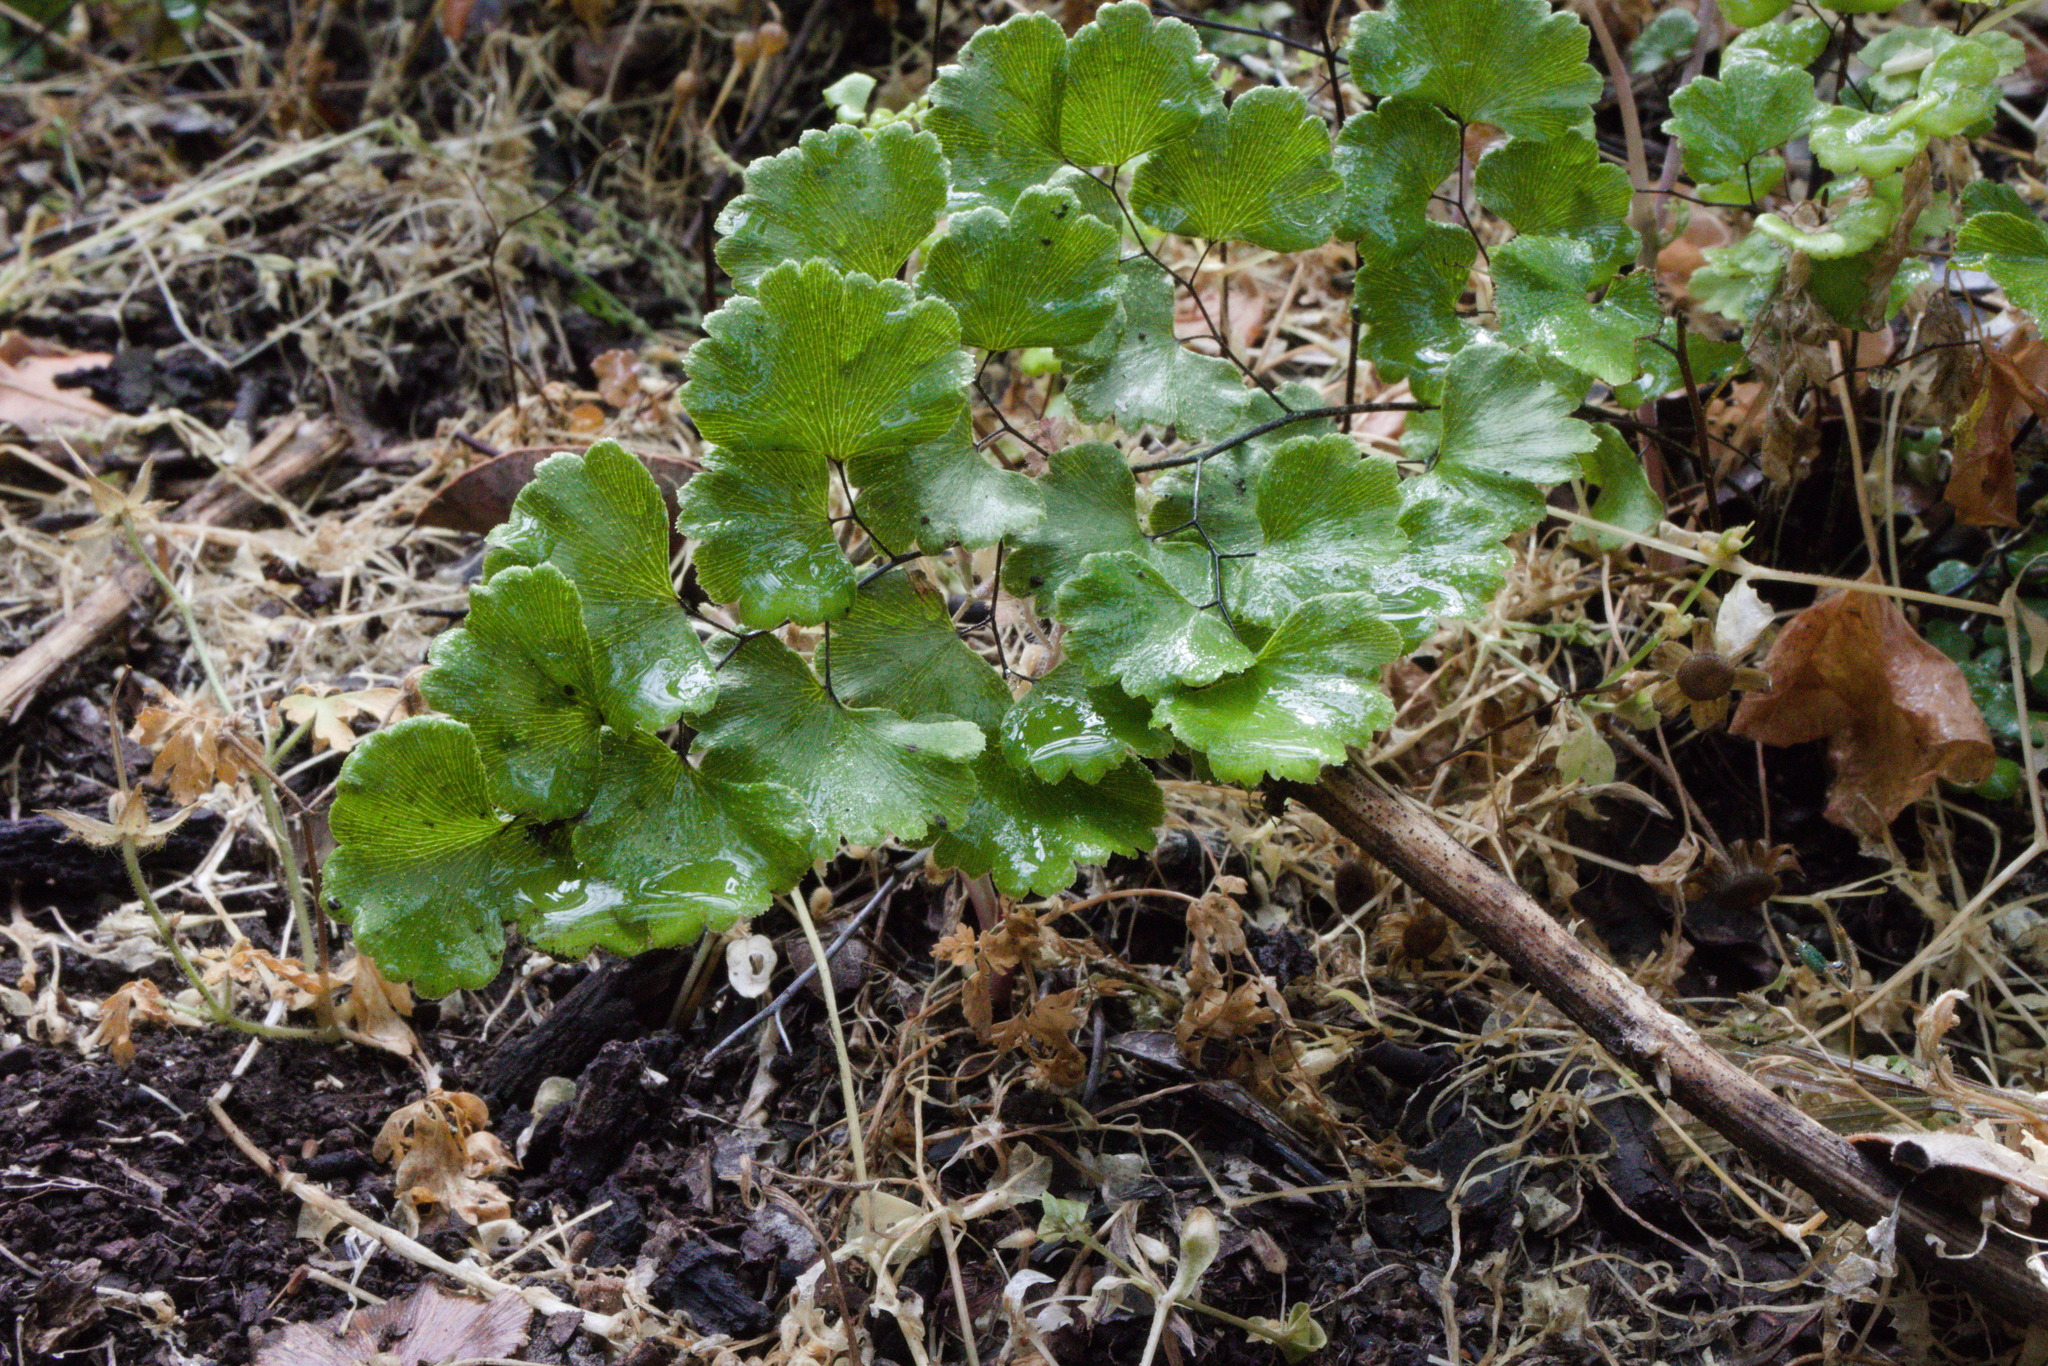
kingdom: Plantae
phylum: Tracheophyta
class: Polypodiopsida
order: Polypodiales
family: Pteridaceae
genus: Adiantum
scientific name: Adiantum sulphureum
